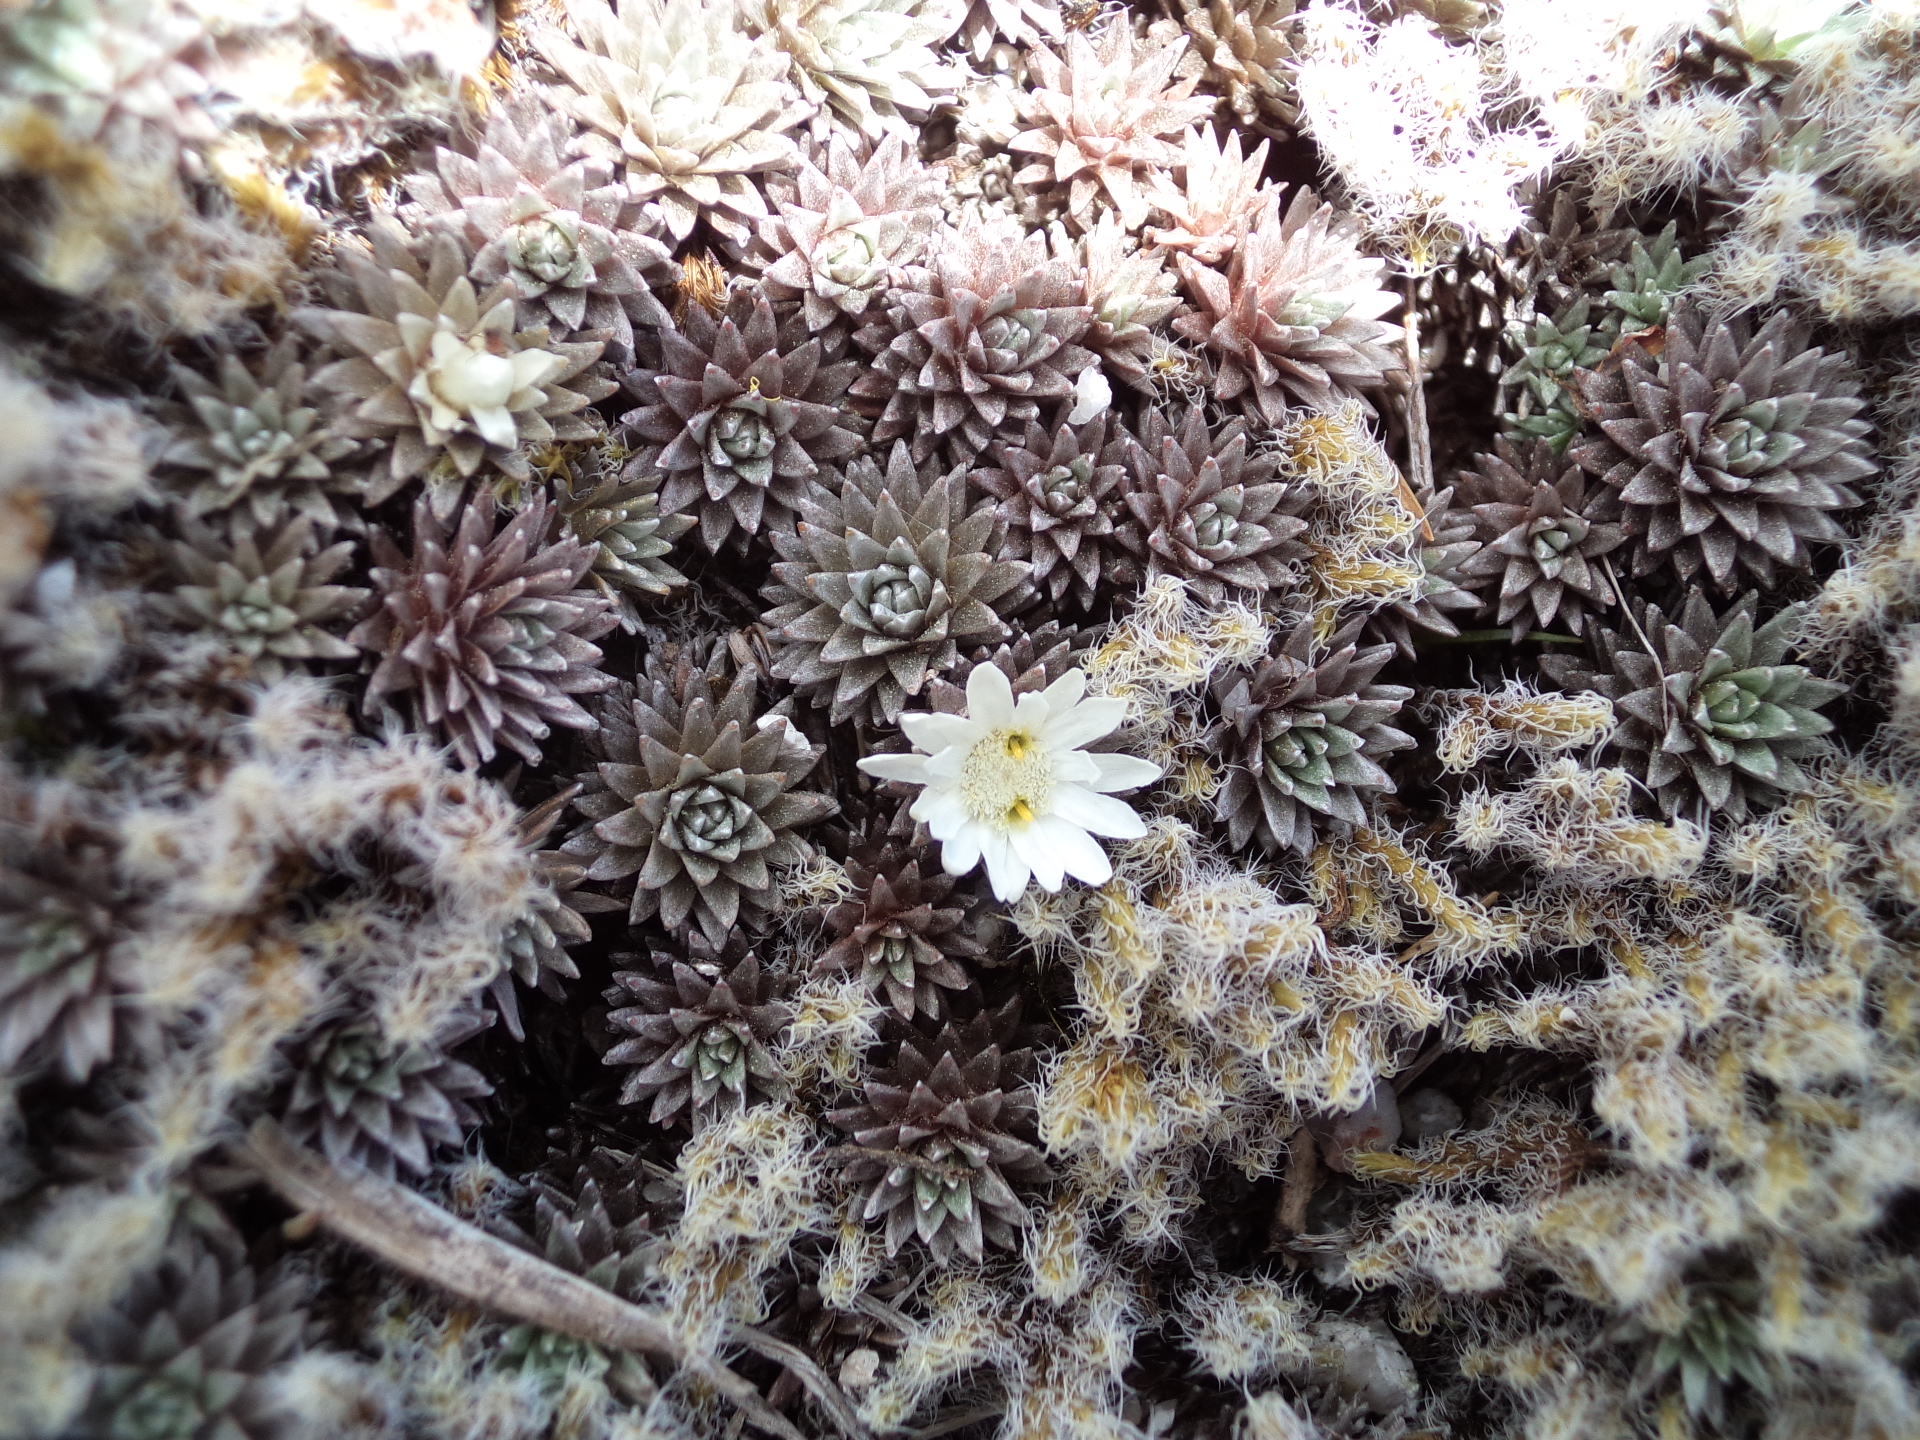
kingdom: Plantae
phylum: Tracheophyta
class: Magnoliopsida
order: Asterales
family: Asteraceae
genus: Raoulia
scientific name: Raoulia grandiflora
